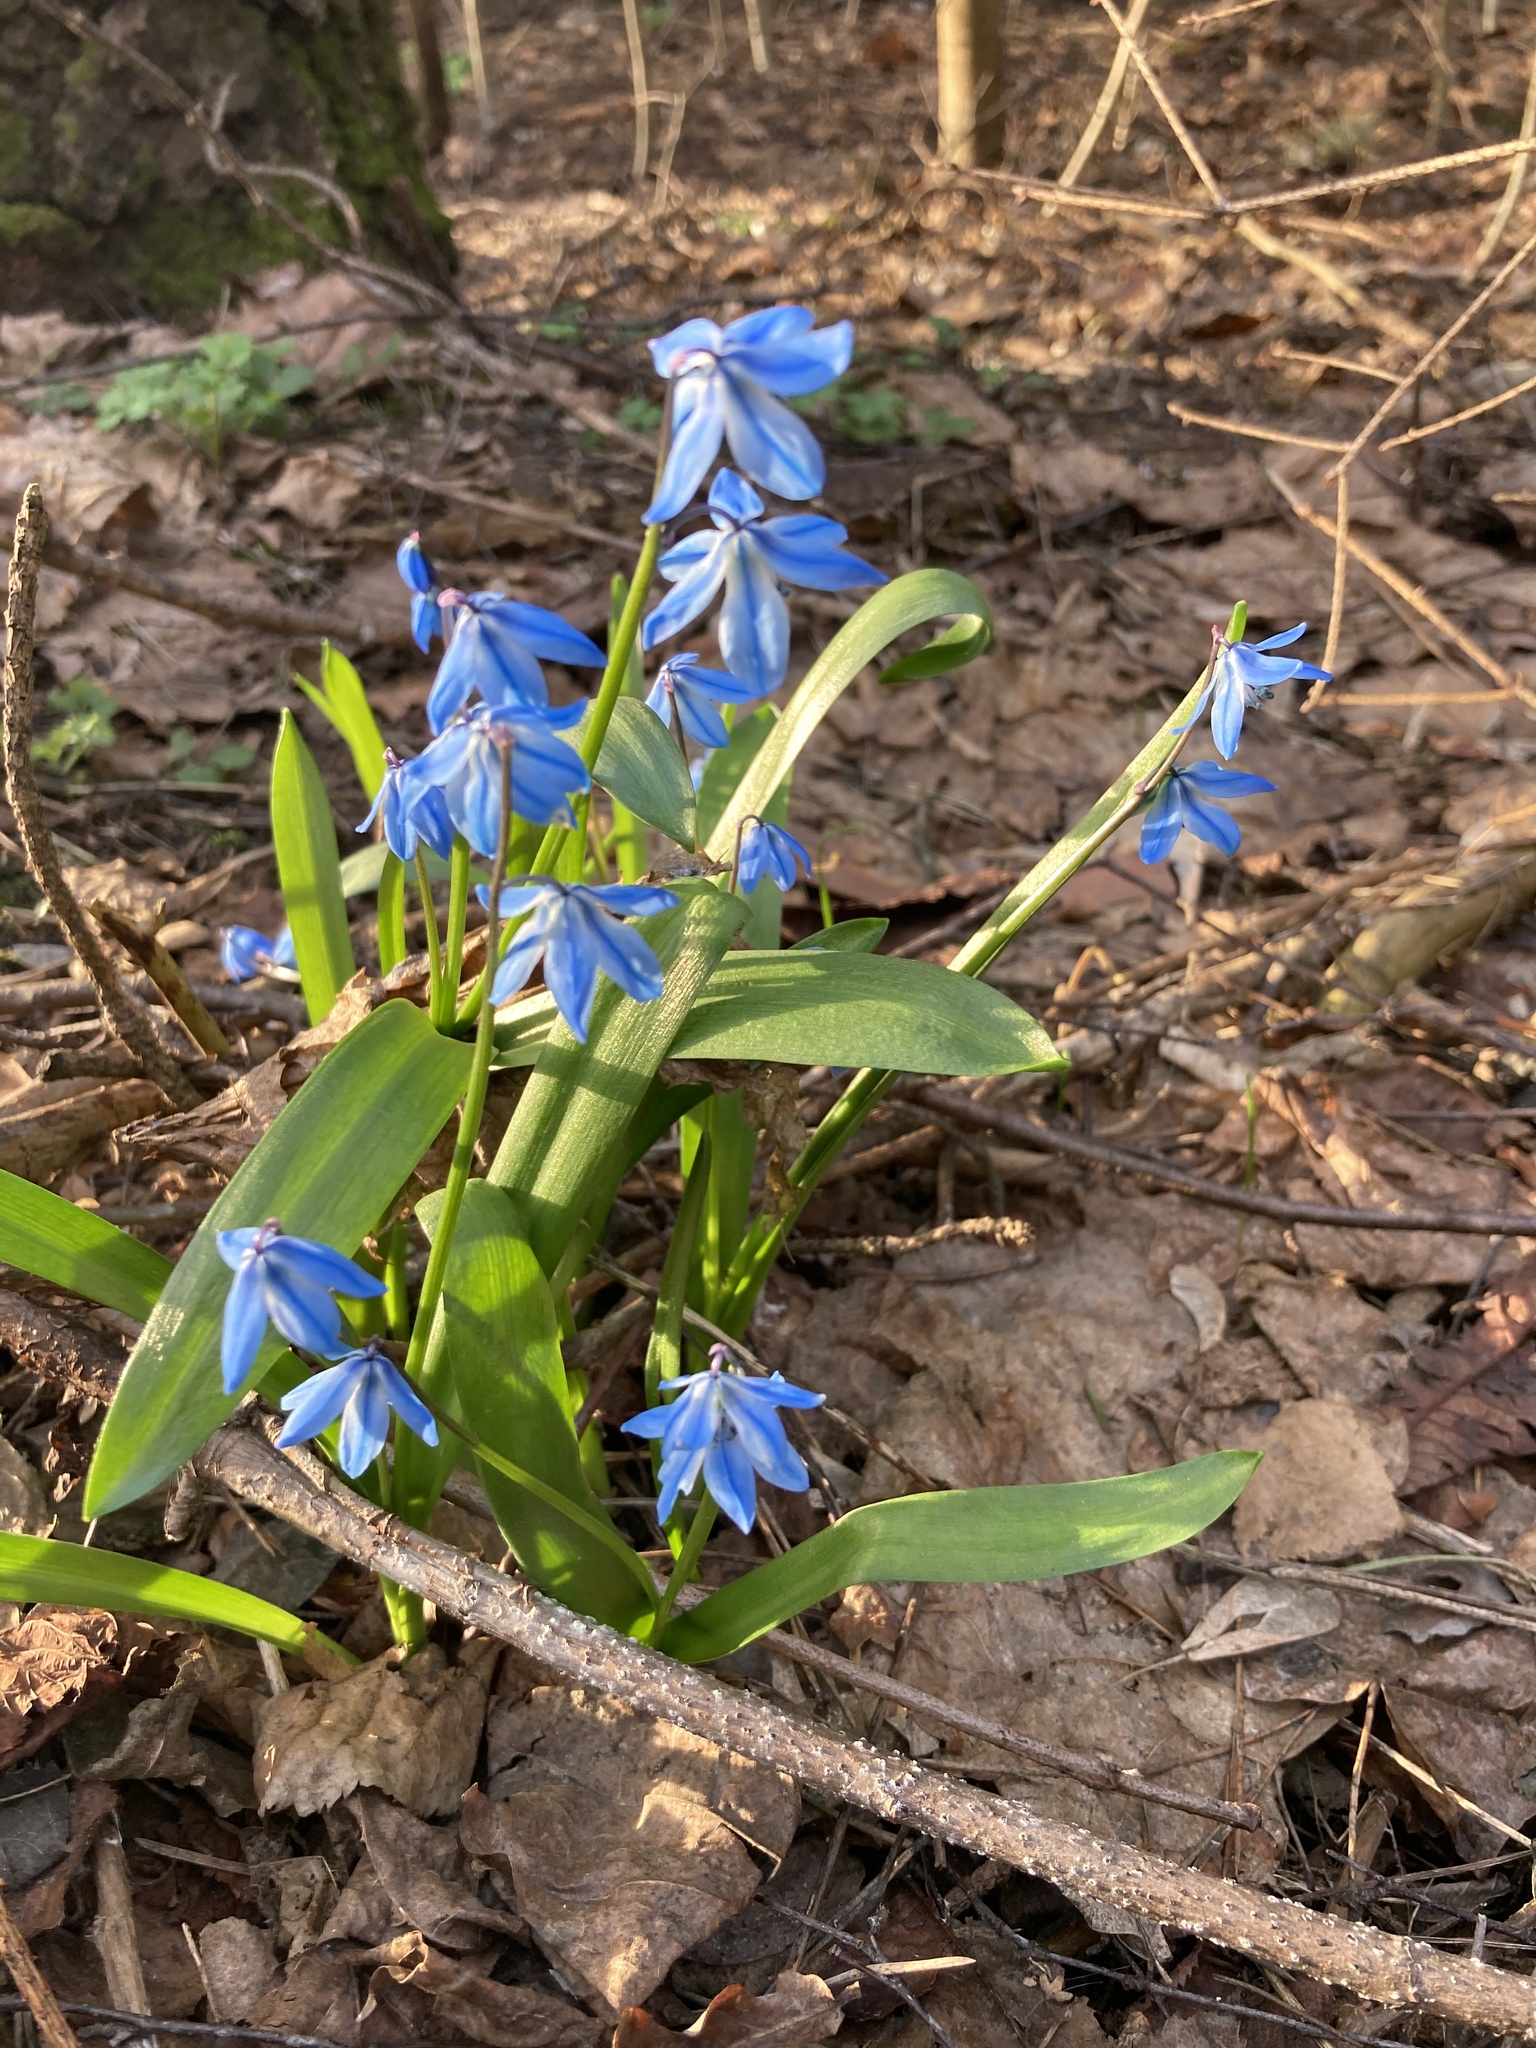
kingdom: Plantae
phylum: Tracheophyta
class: Liliopsida
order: Asparagales
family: Asparagaceae
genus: Scilla
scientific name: Scilla siberica
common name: Siberian squill
